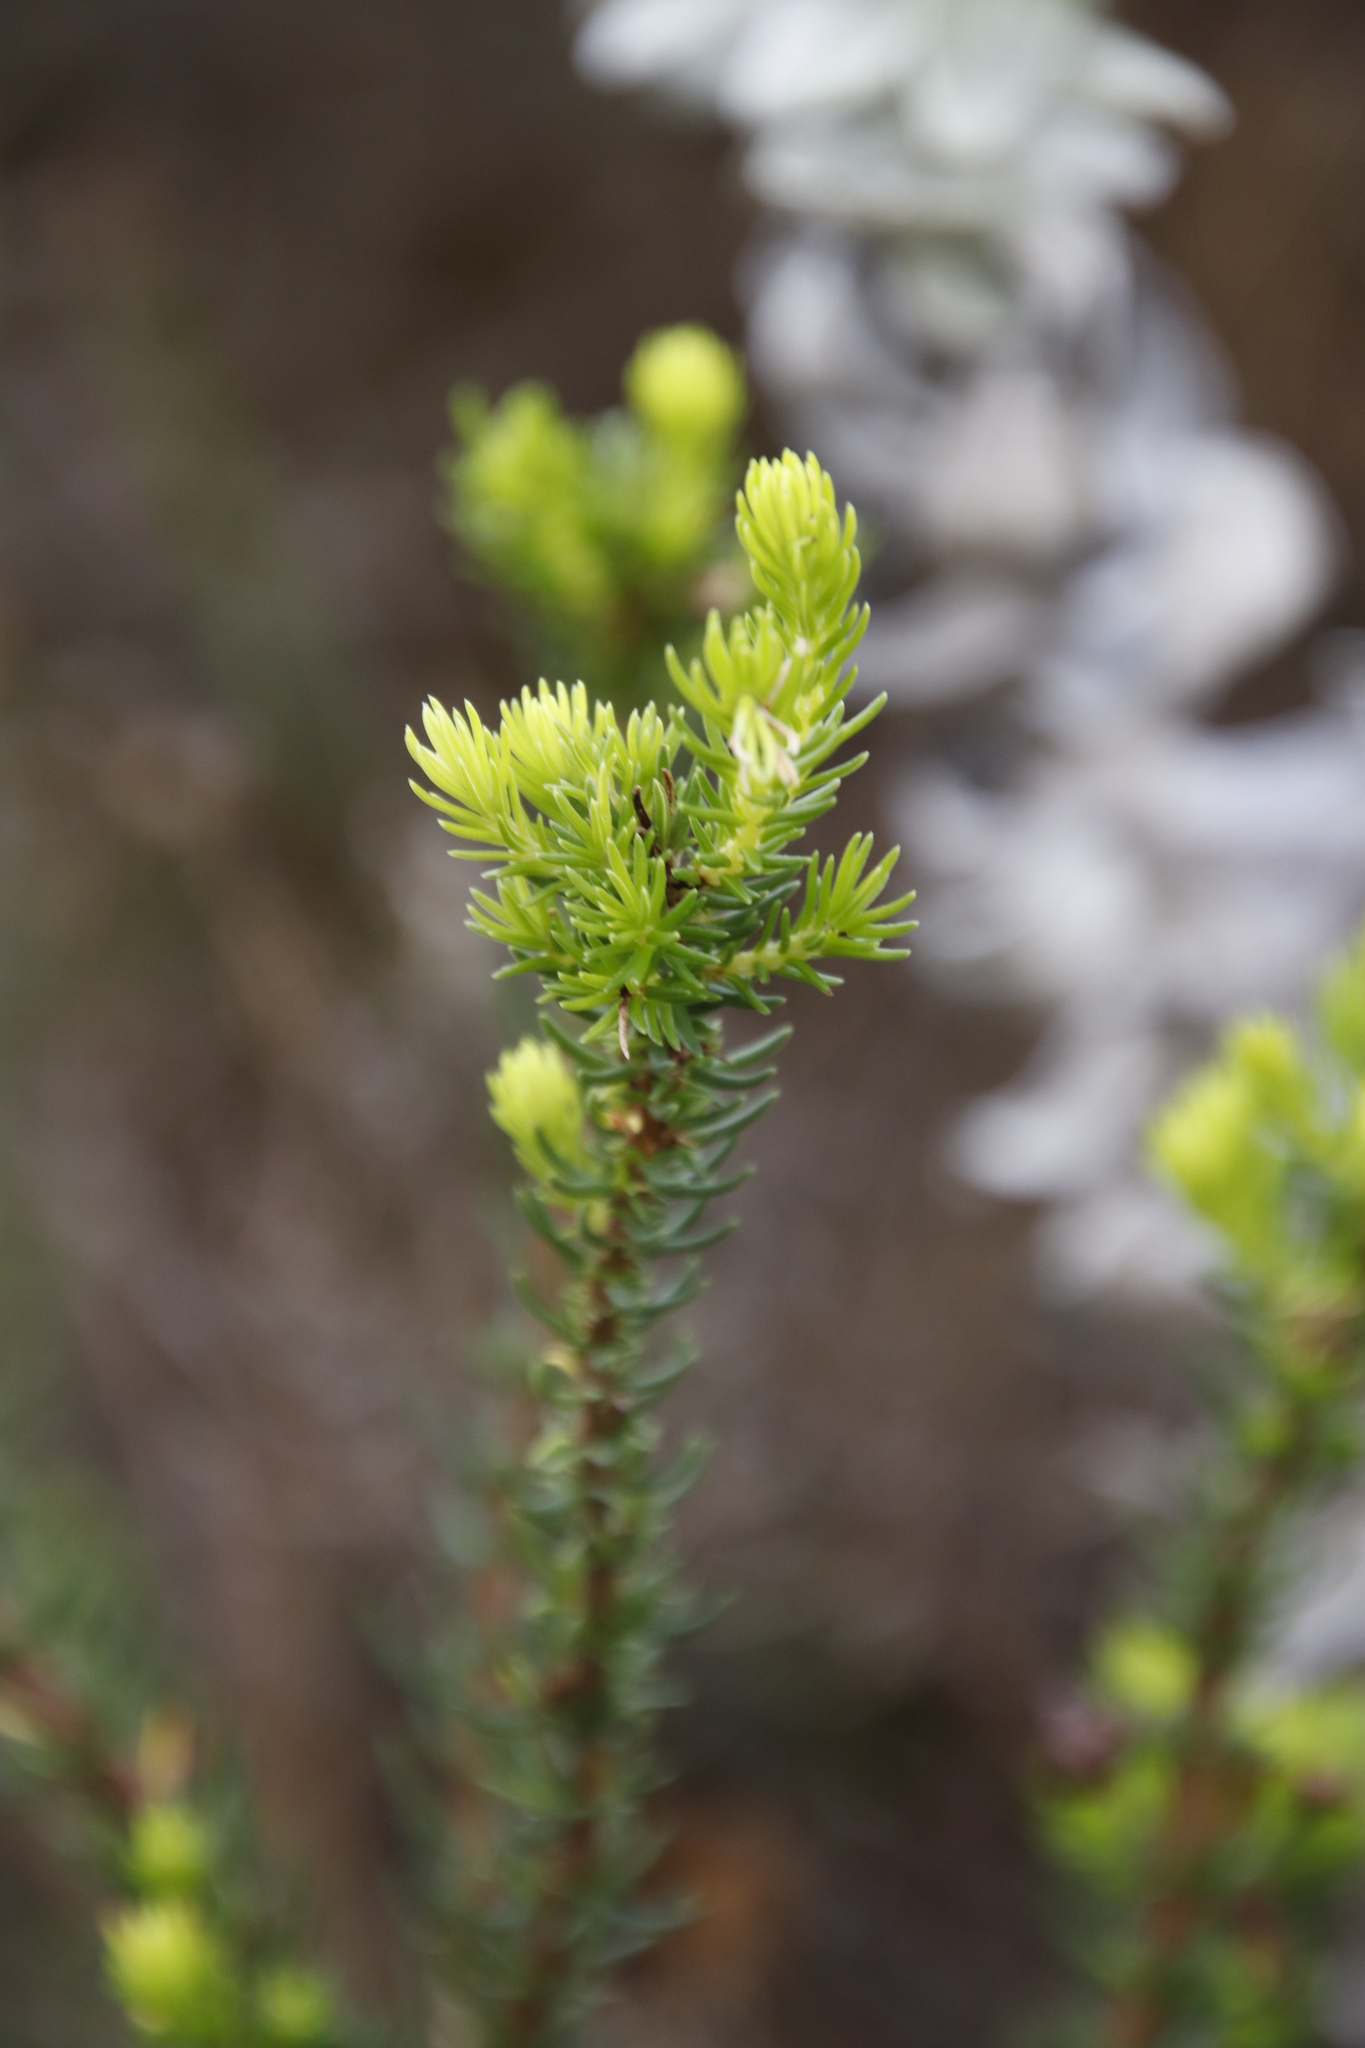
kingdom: Plantae
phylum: Tracheophyta
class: Magnoliopsida
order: Ericales
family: Ericaceae
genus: Erica
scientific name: Erica mammosa
